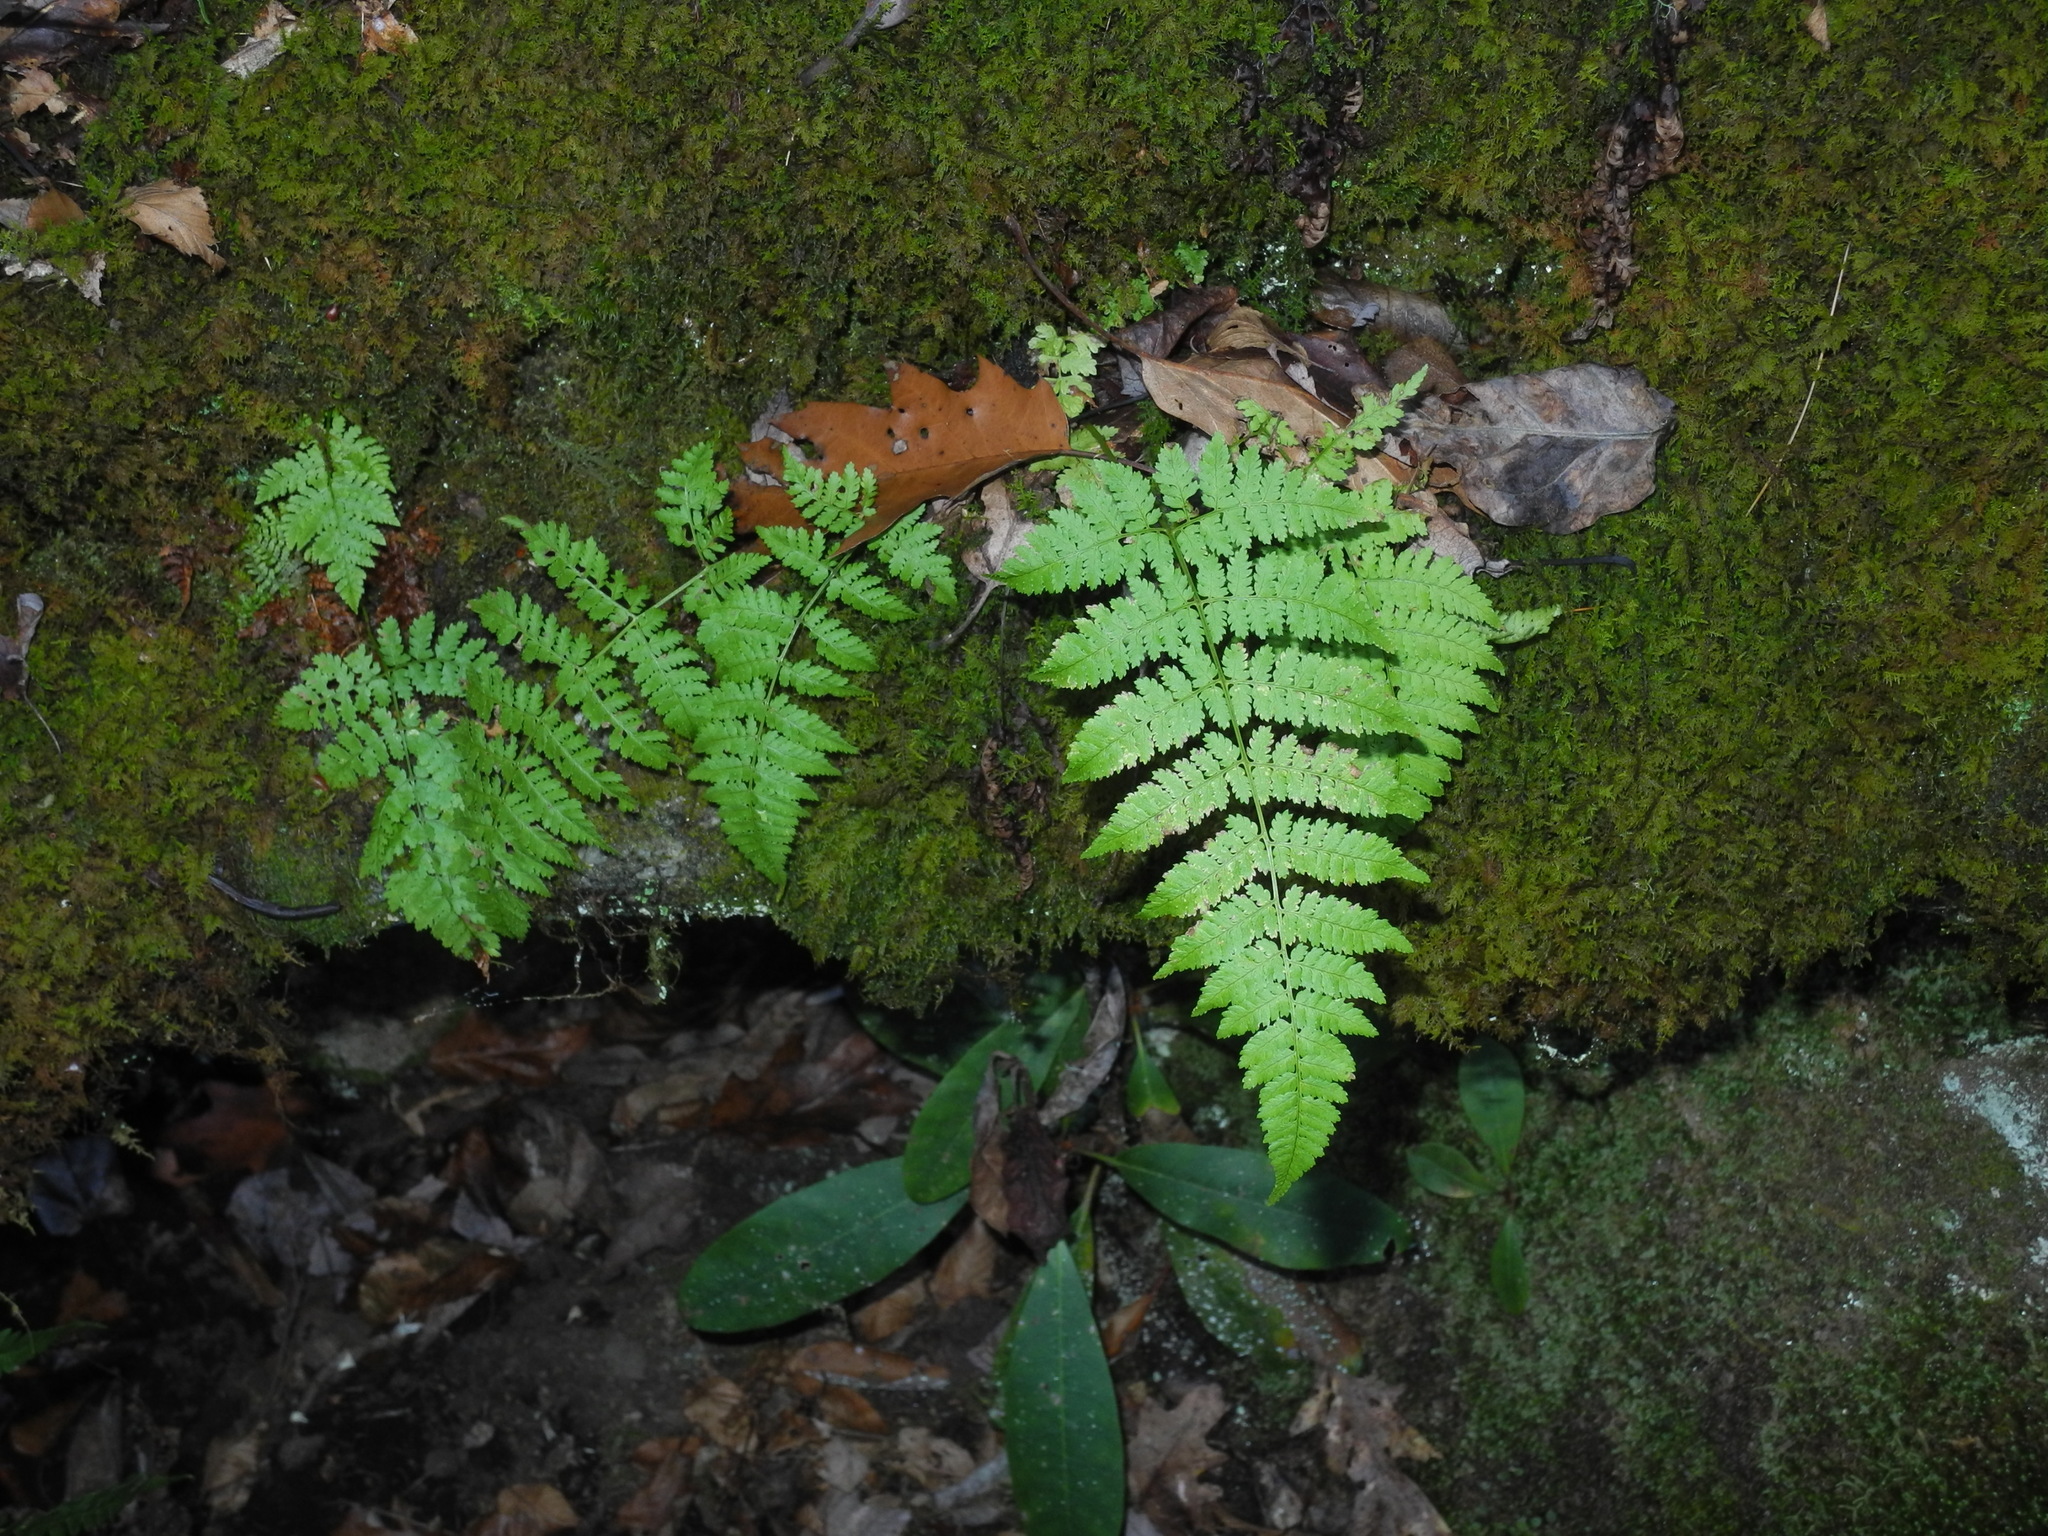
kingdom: Plantae
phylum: Tracheophyta
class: Polypodiopsida
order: Polypodiales
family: Dryopteridaceae
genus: Dryopteris
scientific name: Dryopteris carthusiana
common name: Narrow buckler-fern
